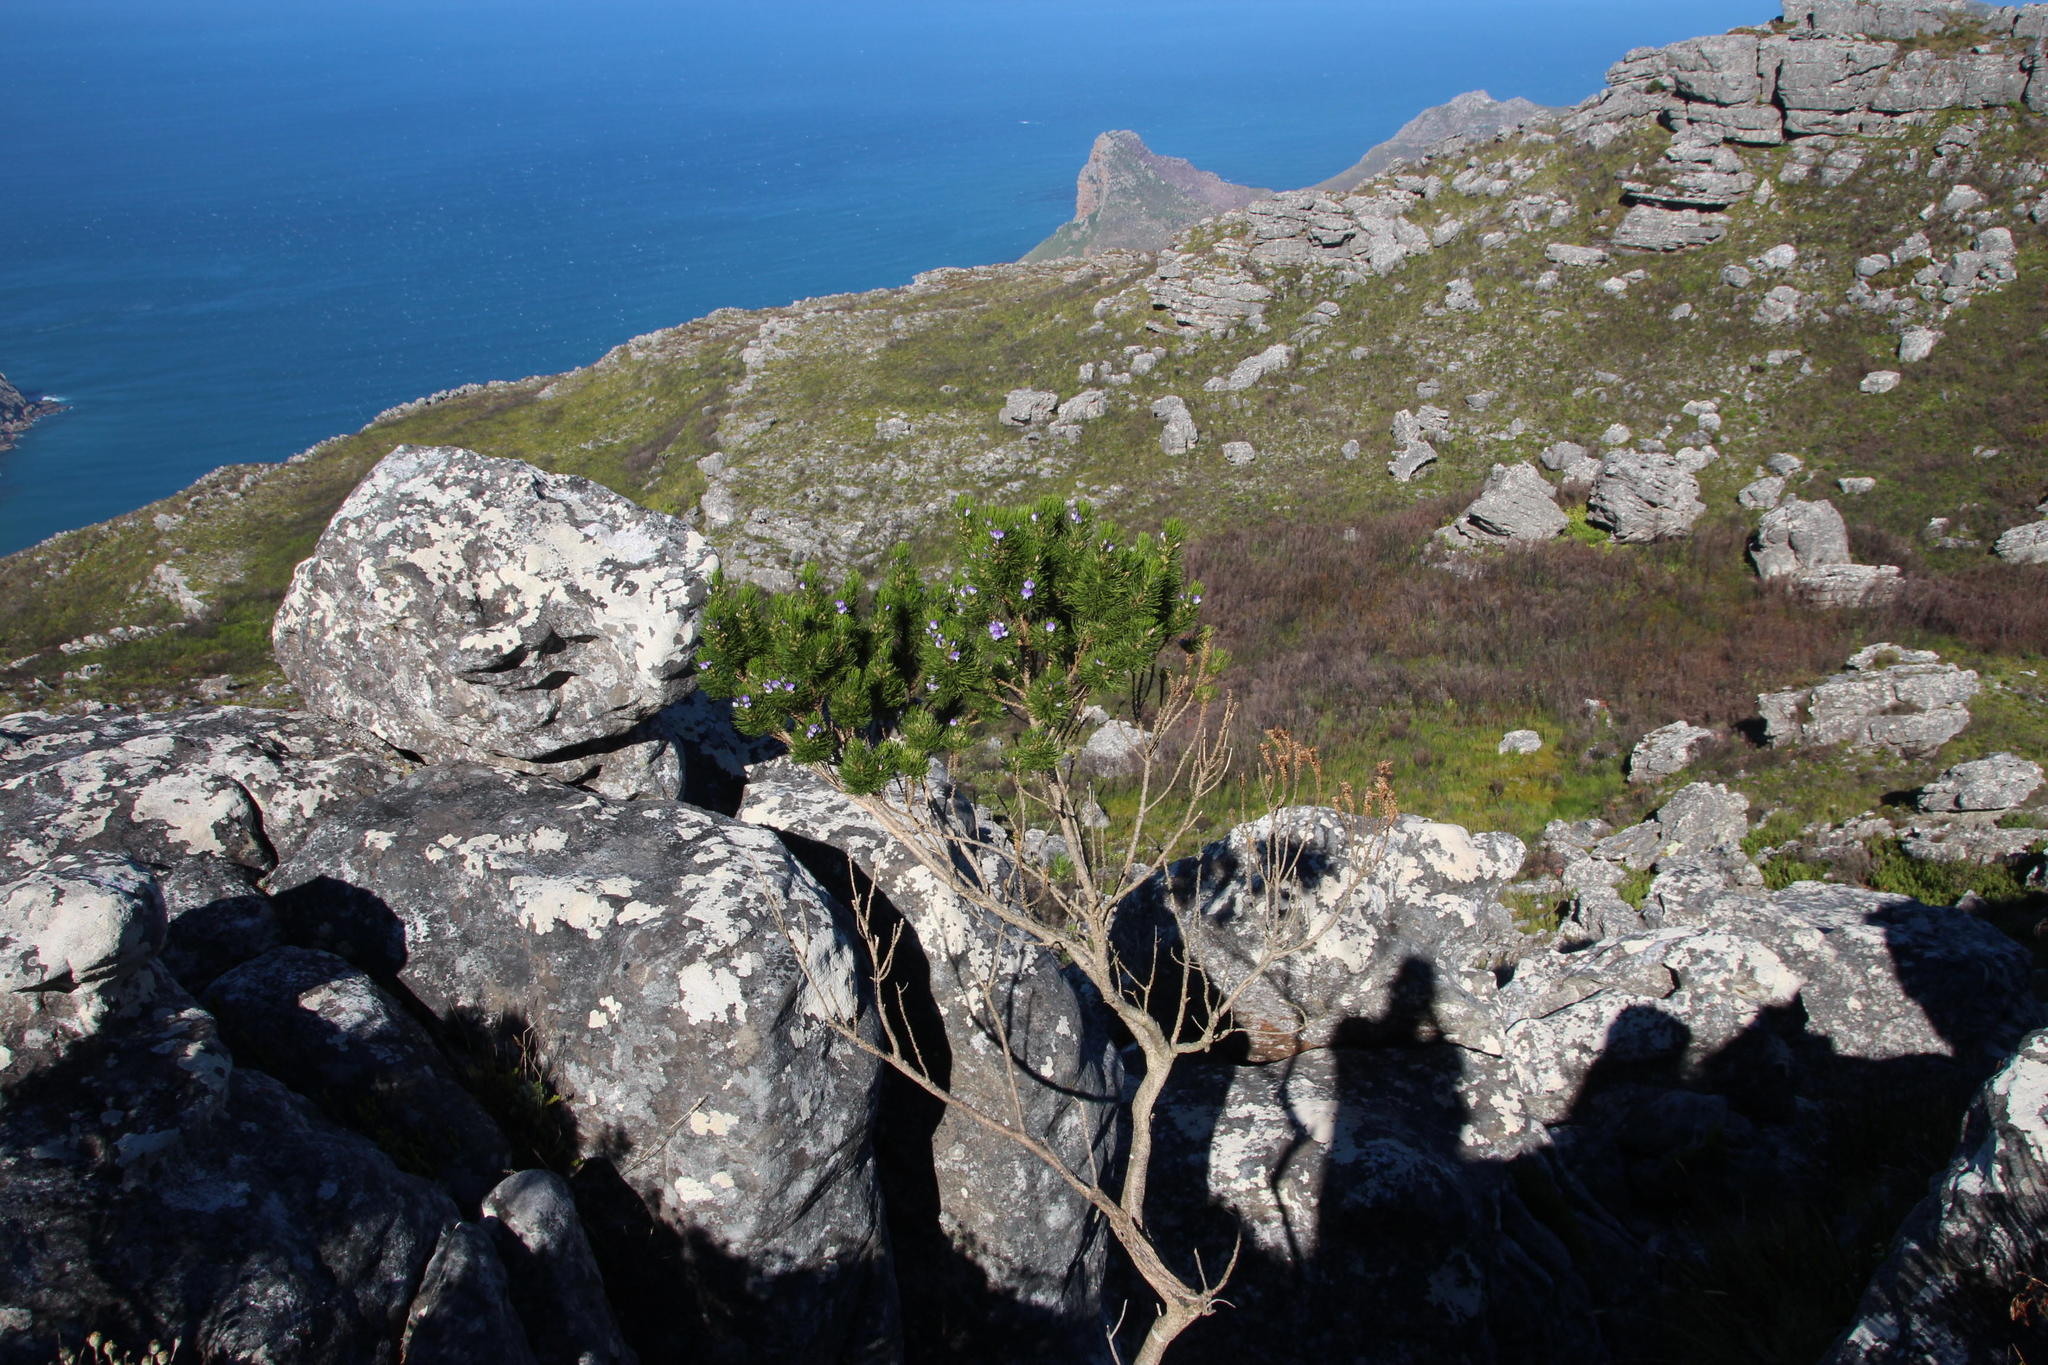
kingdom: Plantae
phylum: Tracheophyta
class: Magnoliopsida
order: Fabales
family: Fabaceae
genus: Psoralea
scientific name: Psoralea pinnata
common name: African scurfpea
